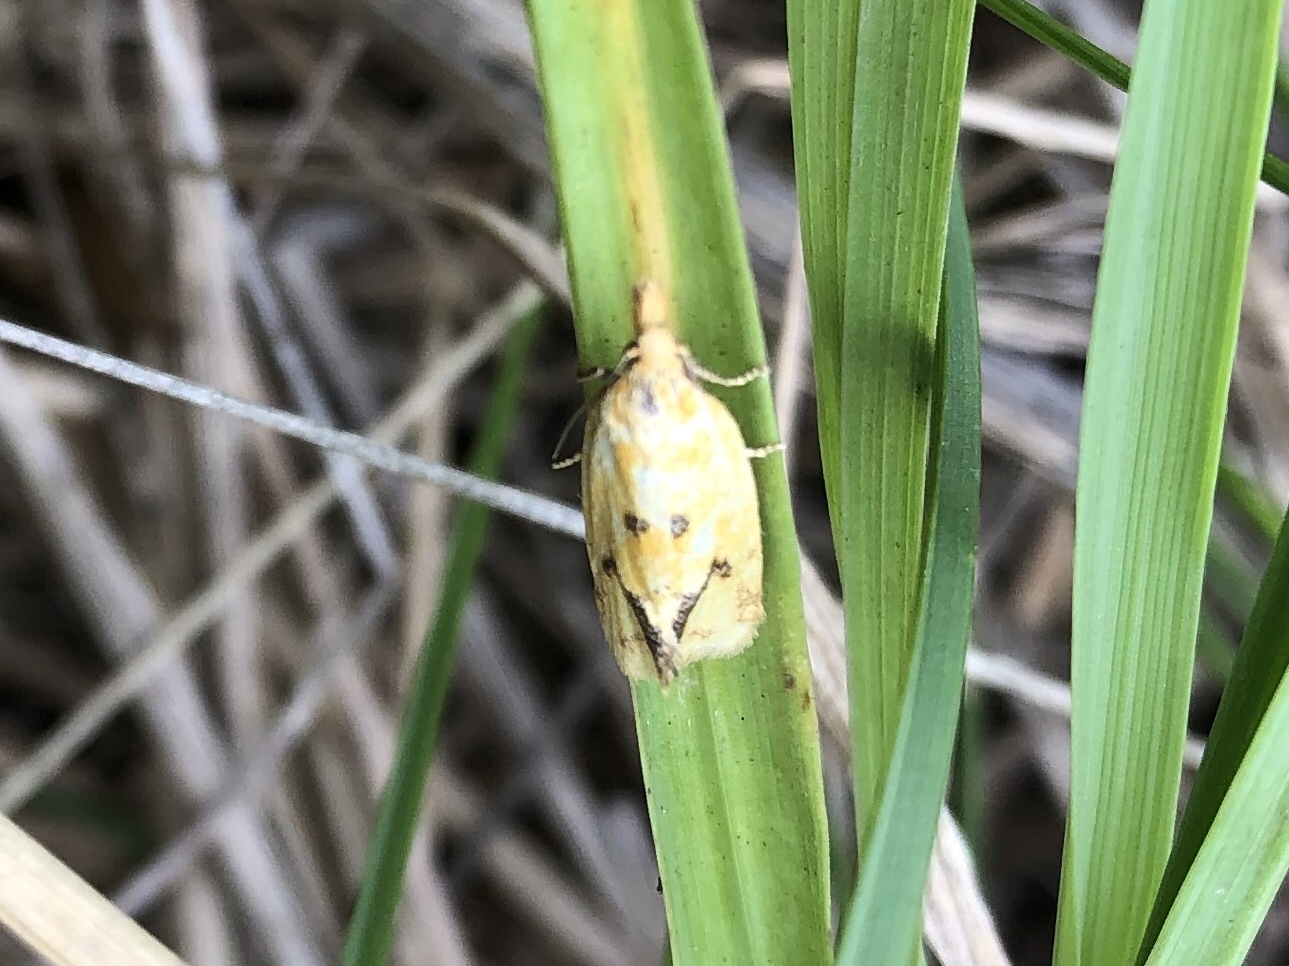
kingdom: Animalia
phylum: Arthropoda
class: Insecta
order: Lepidoptera
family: Tortricidae
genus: Agapeta
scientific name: Agapeta hamana
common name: Common yellow conch
